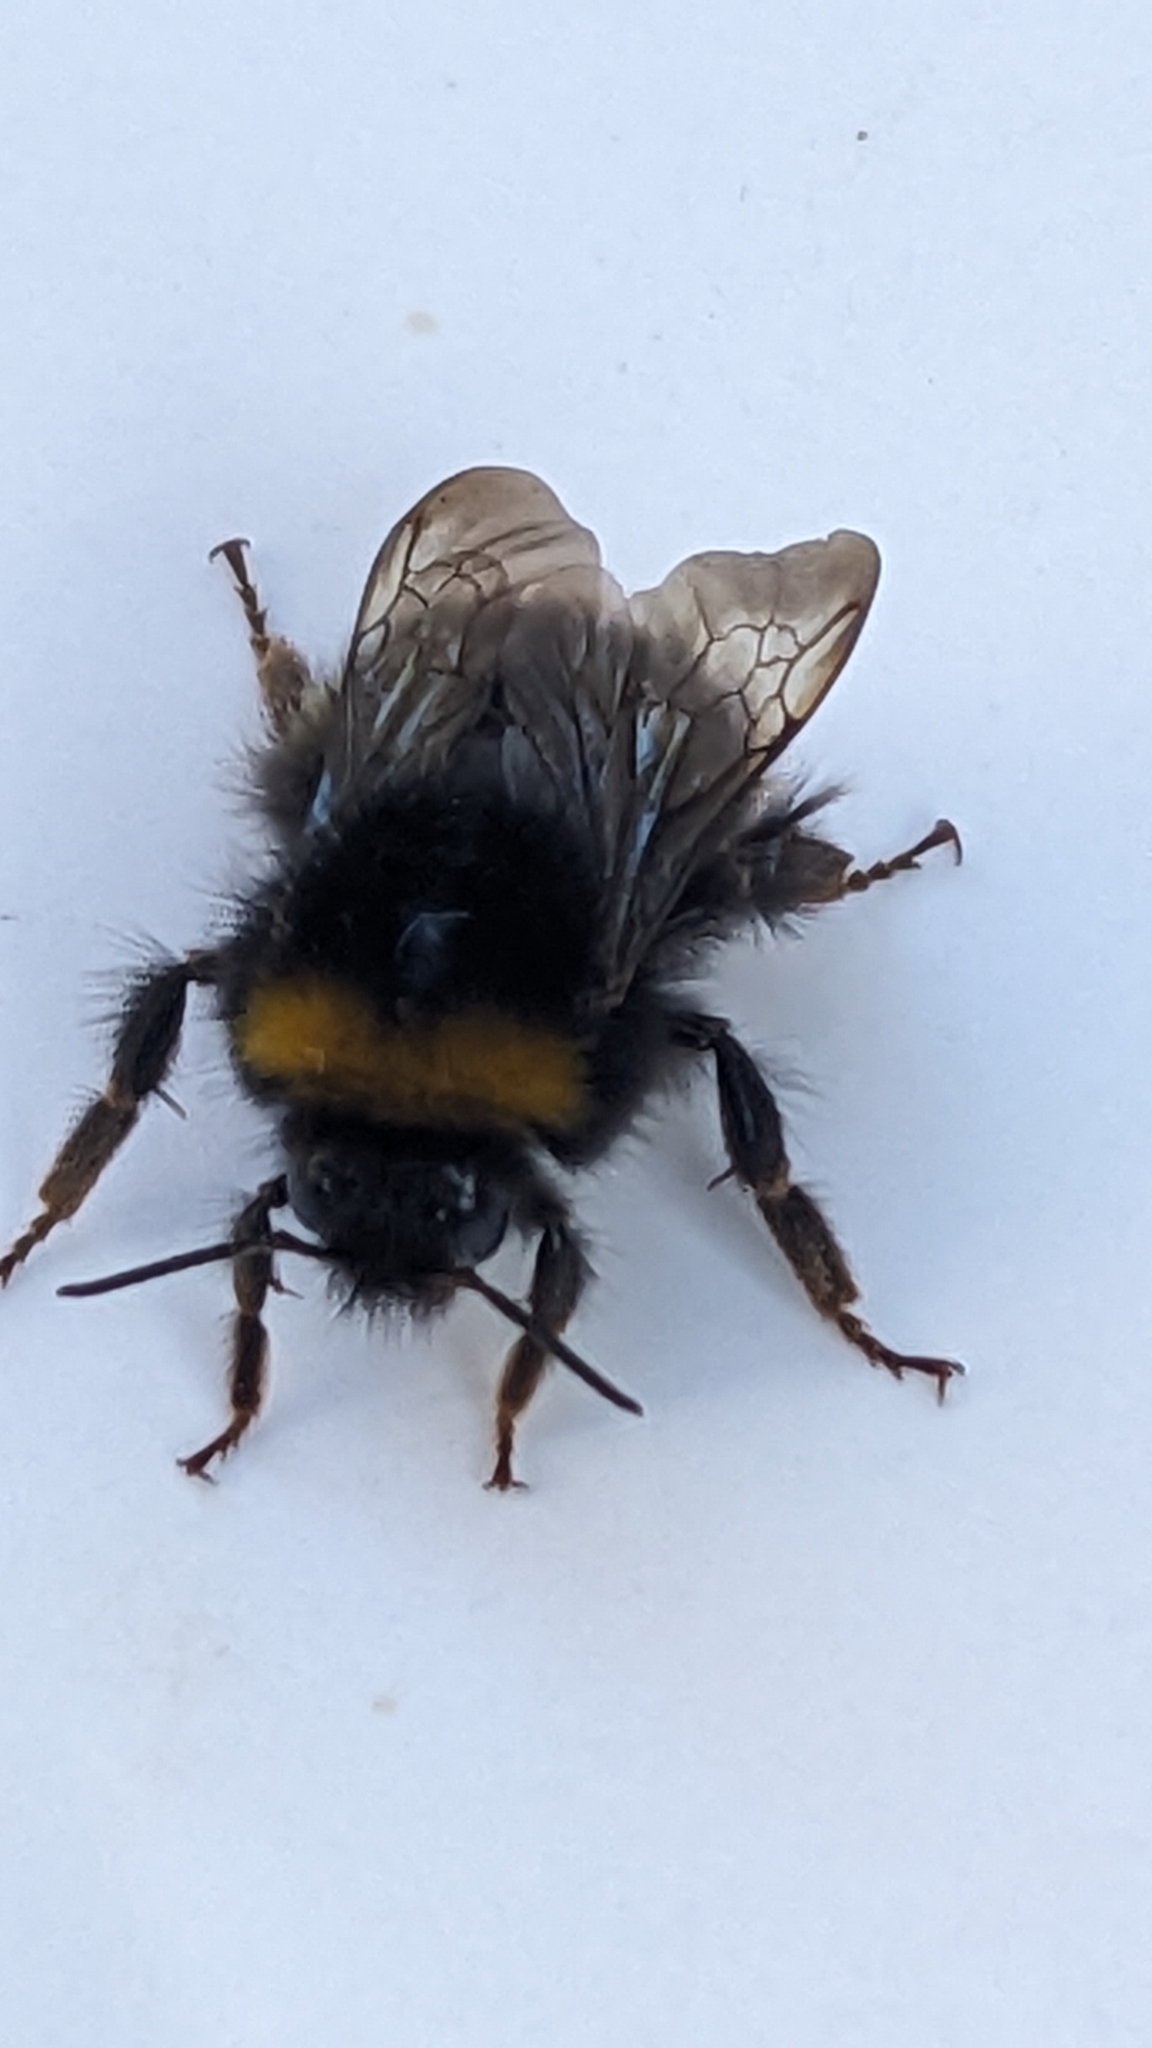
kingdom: Animalia
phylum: Arthropoda
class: Insecta
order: Hymenoptera
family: Apidae
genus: Bombus
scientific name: Bombus pratorum
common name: Early humble-bee
